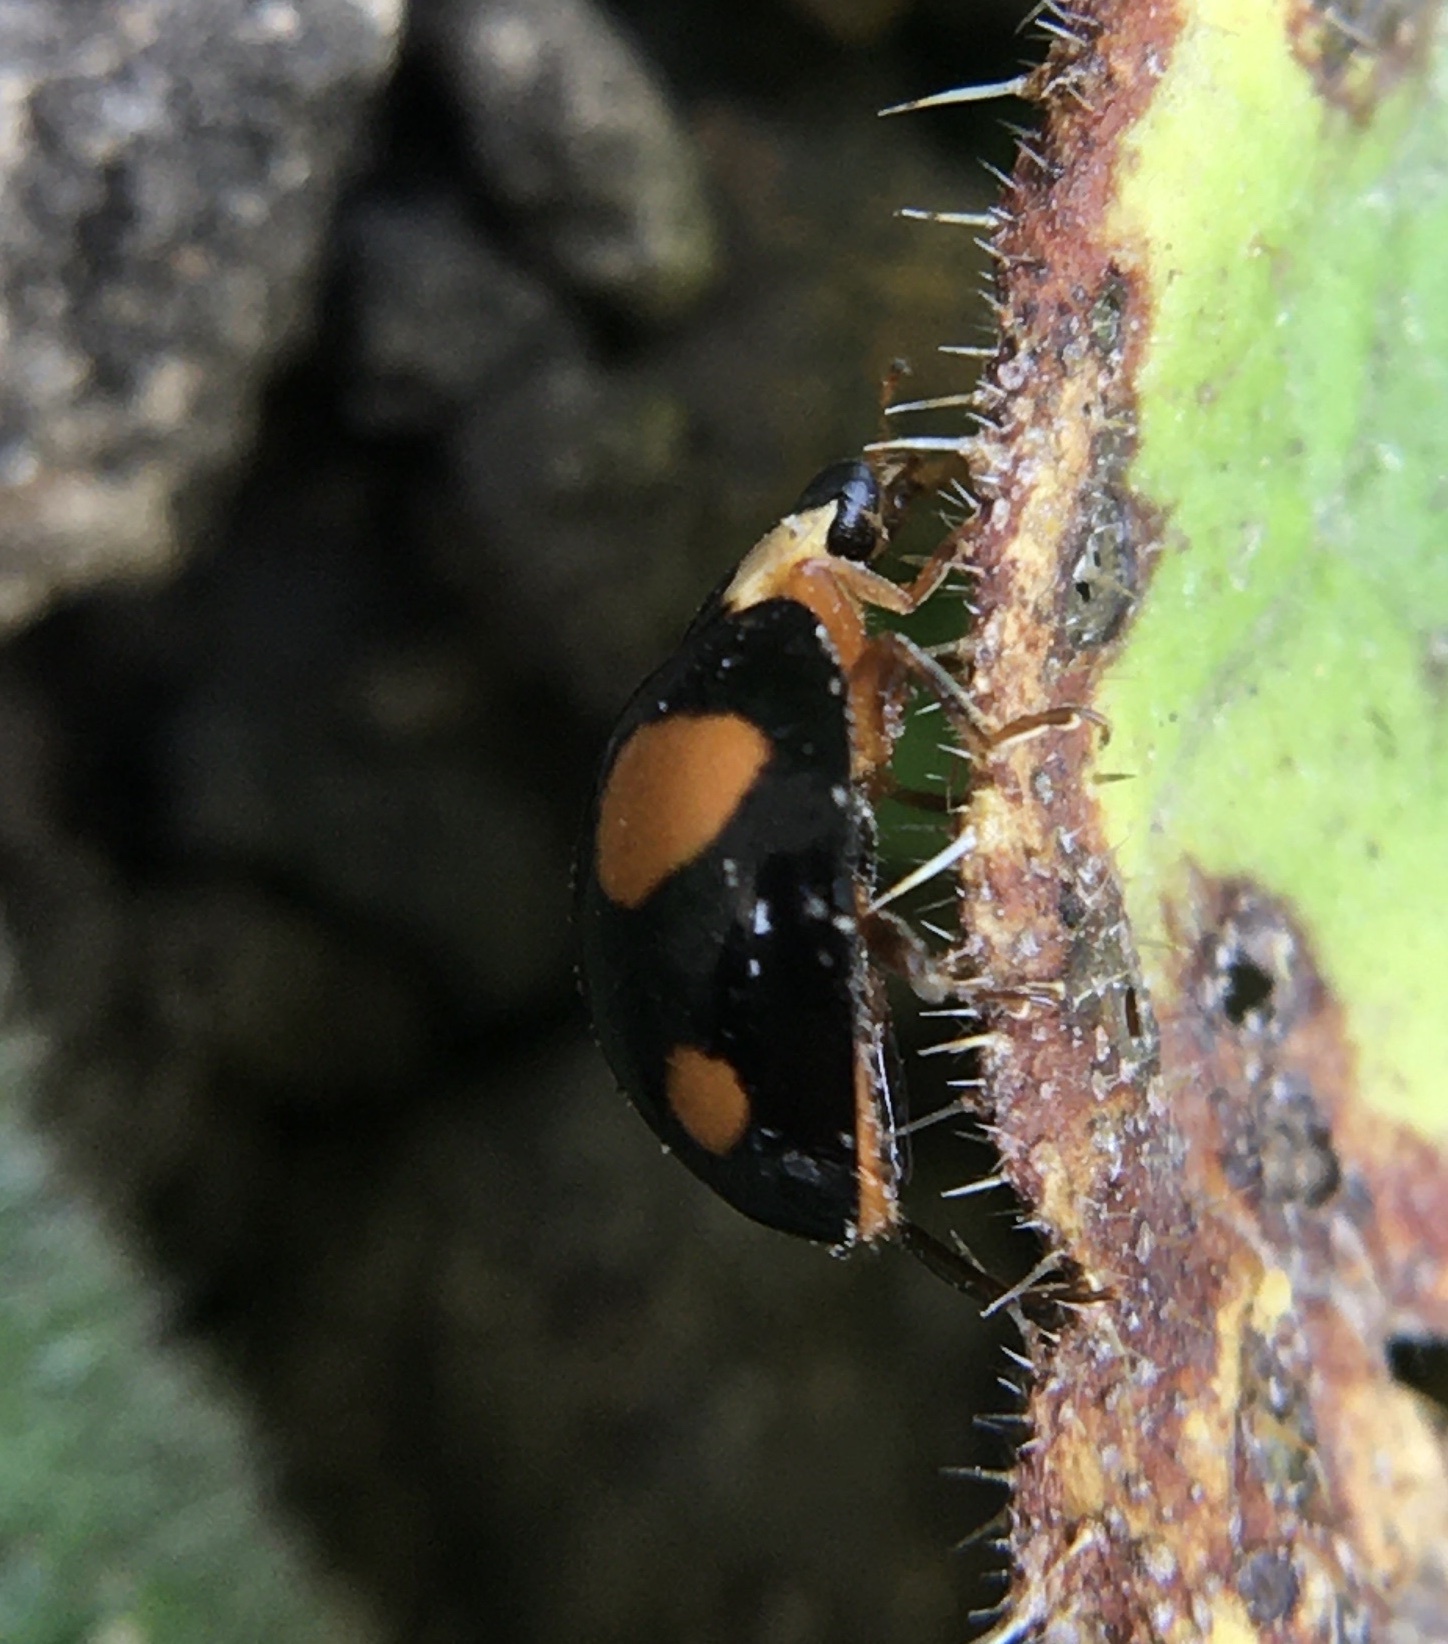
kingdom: Animalia
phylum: Arthropoda
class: Insecta
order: Coleoptera
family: Coccinellidae
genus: Harmonia
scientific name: Harmonia axyridis
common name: Harlequin ladybird
